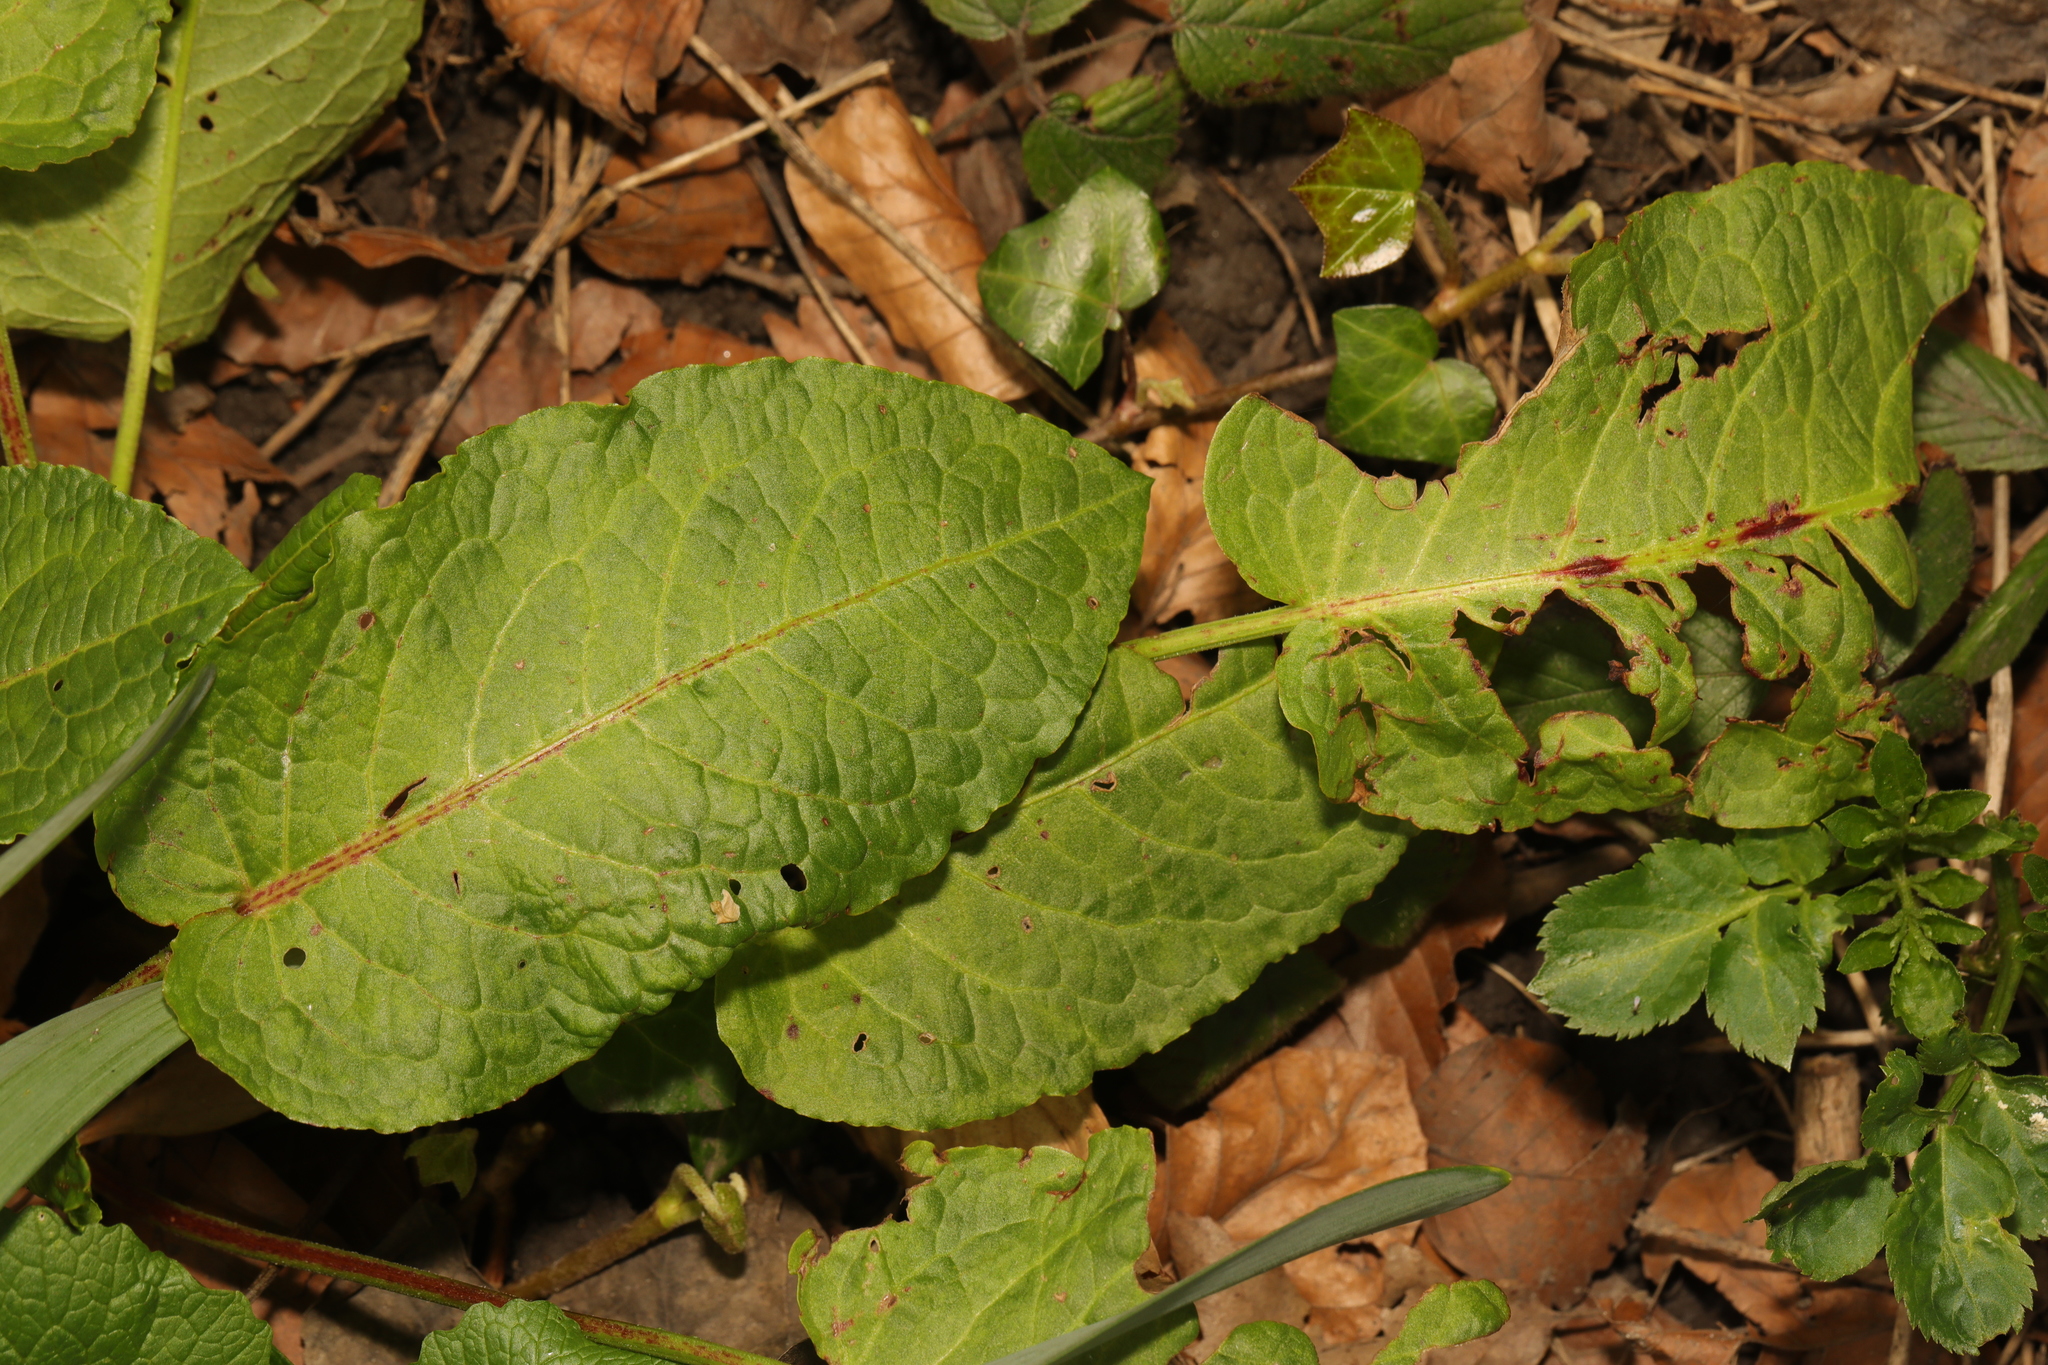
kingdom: Plantae
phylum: Tracheophyta
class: Magnoliopsida
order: Caryophyllales
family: Polygonaceae
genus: Rumex
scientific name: Rumex obtusifolius
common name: Bitter dock
